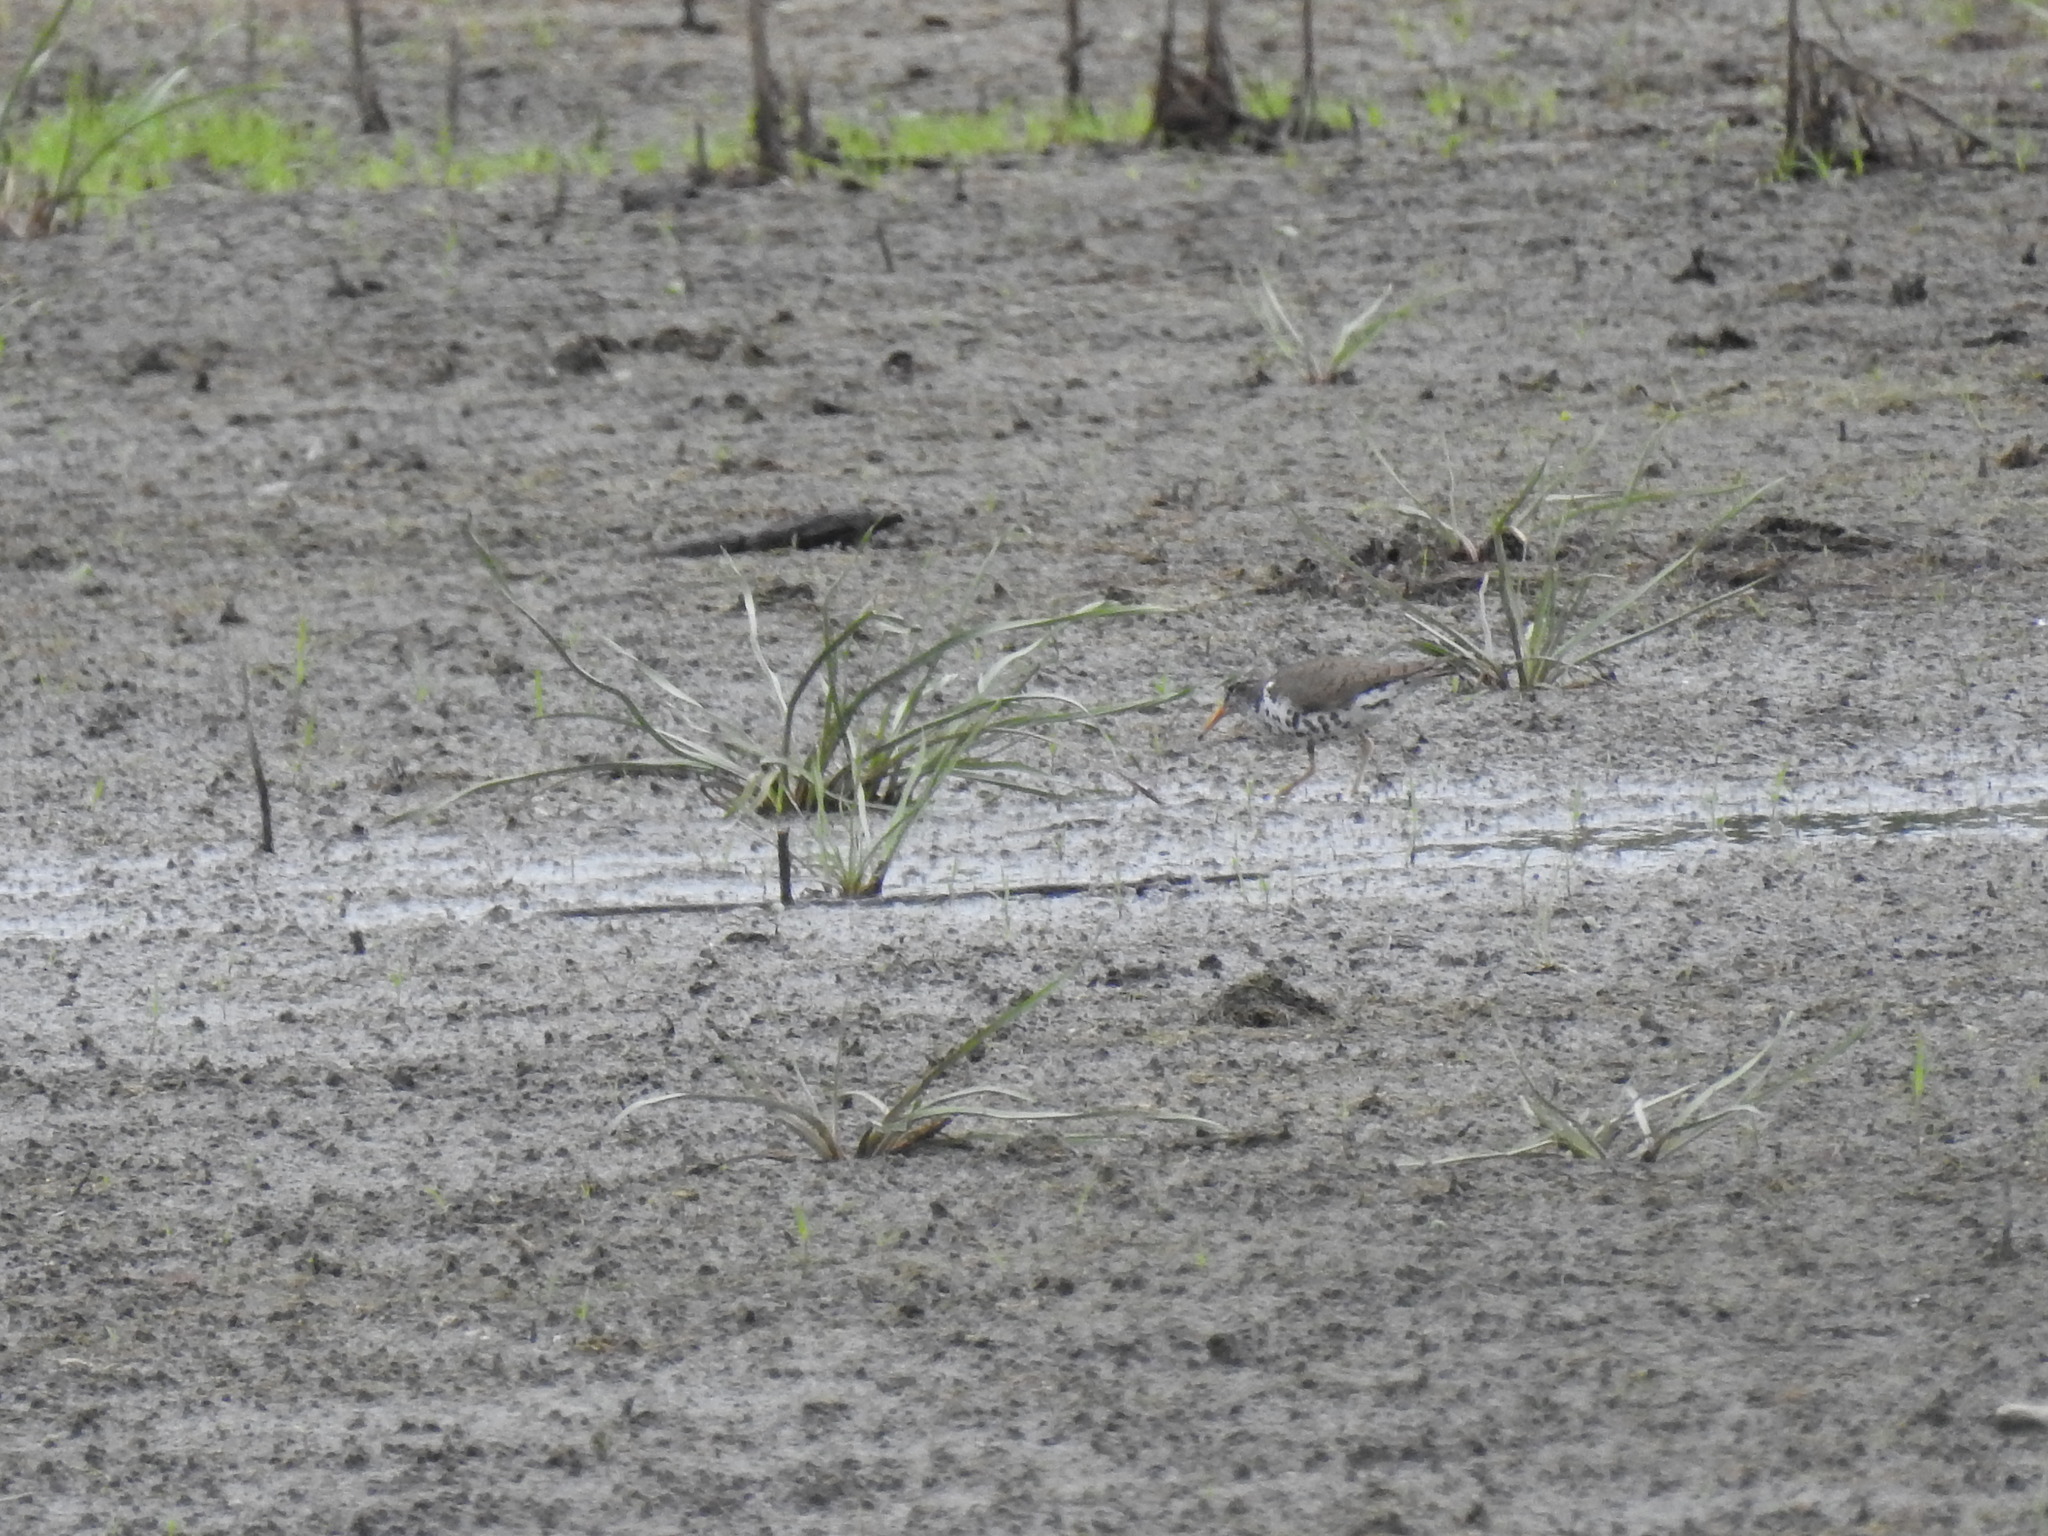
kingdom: Animalia
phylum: Chordata
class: Aves
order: Charadriiformes
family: Scolopacidae
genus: Actitis
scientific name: Actitis macularius
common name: Spotted sandpiper
